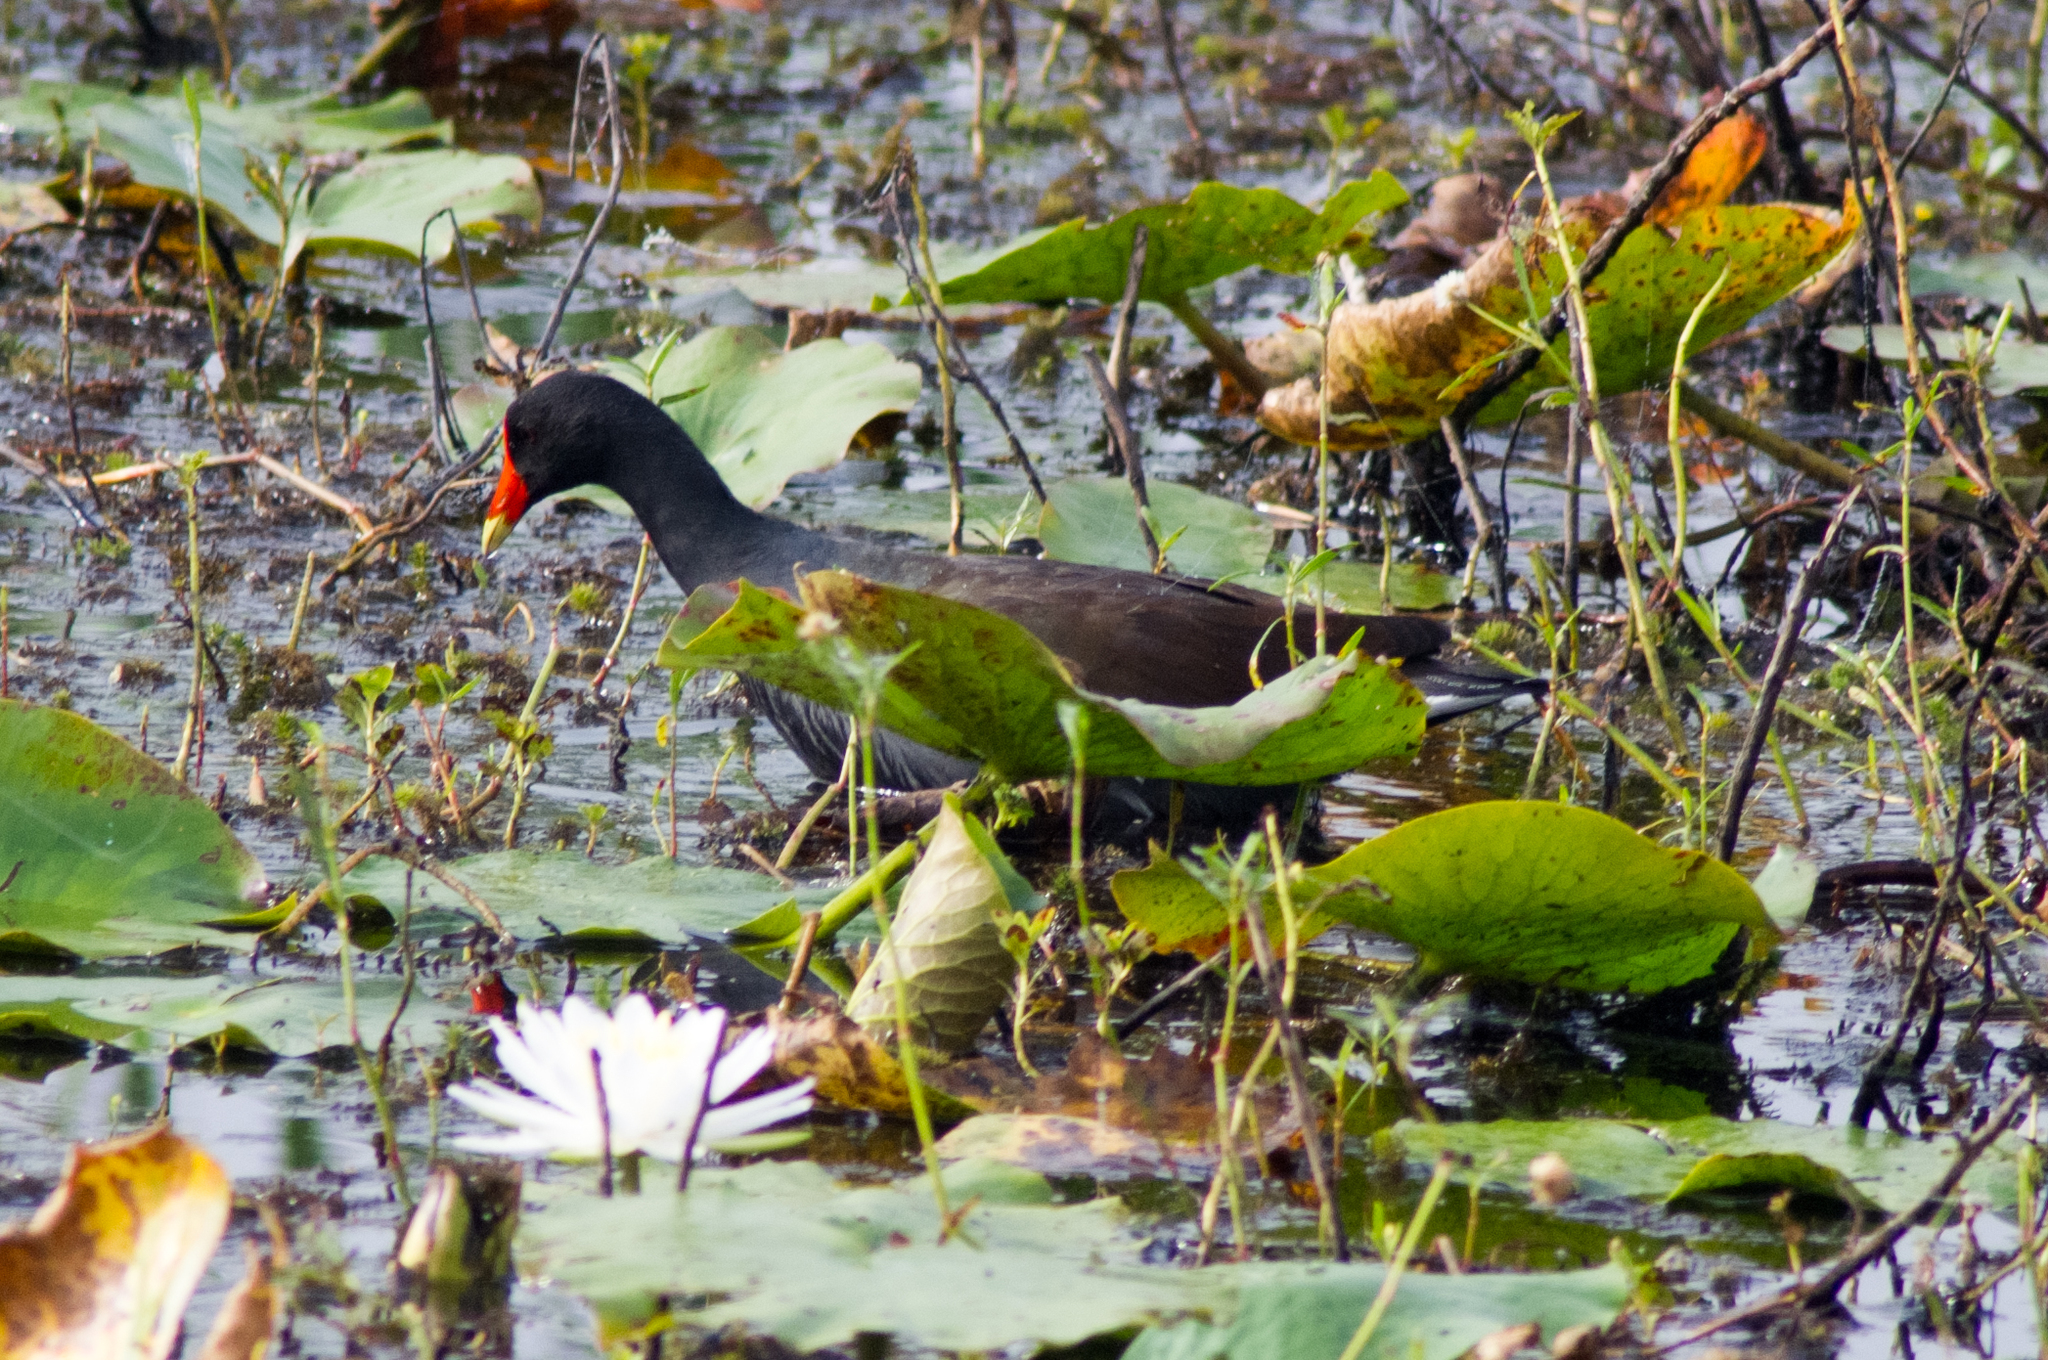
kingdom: Animalia
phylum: Chordata
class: Aves
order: Gruiformes
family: Rallidae
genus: Gallinula
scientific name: Gallinula chloropus
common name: Common moorhen
